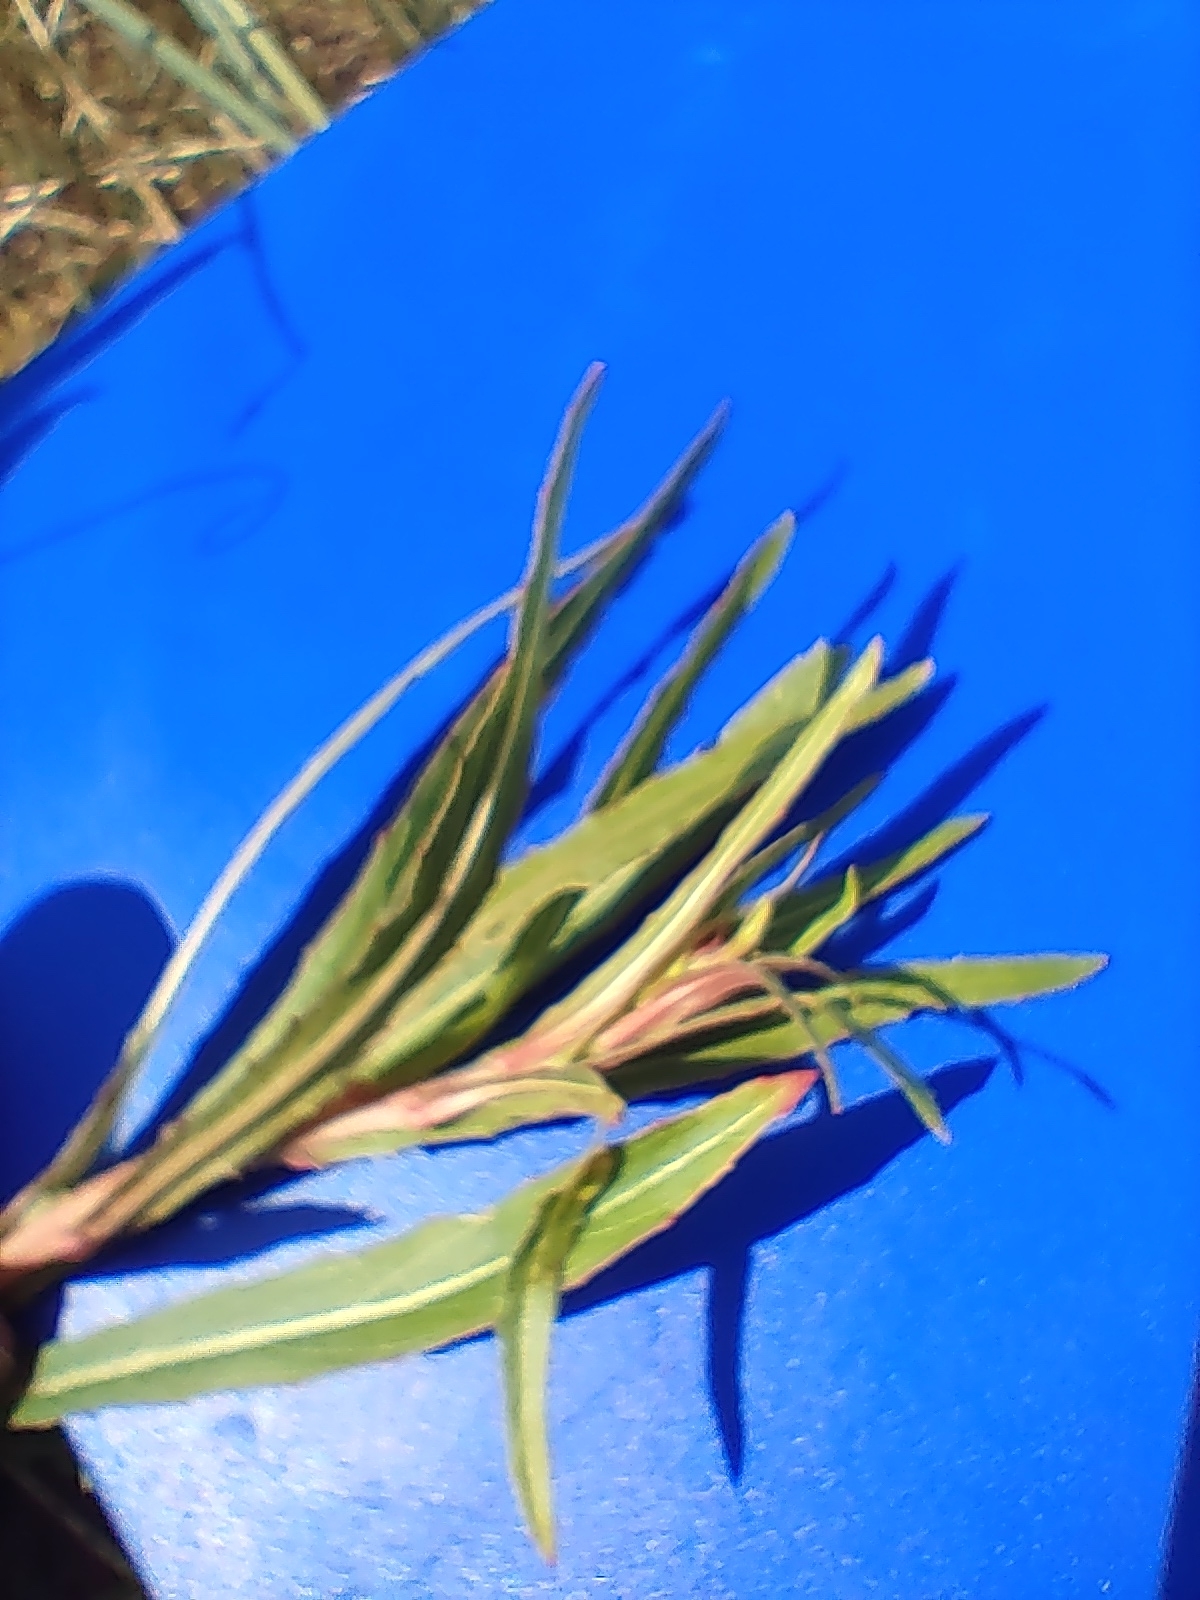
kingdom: Plantae
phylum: Tracheophyta
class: Magnoliopsida
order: Myrtales
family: Onagraceae
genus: Oenothera
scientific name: Oenothera stricta
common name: Fragrant evening-primrose
